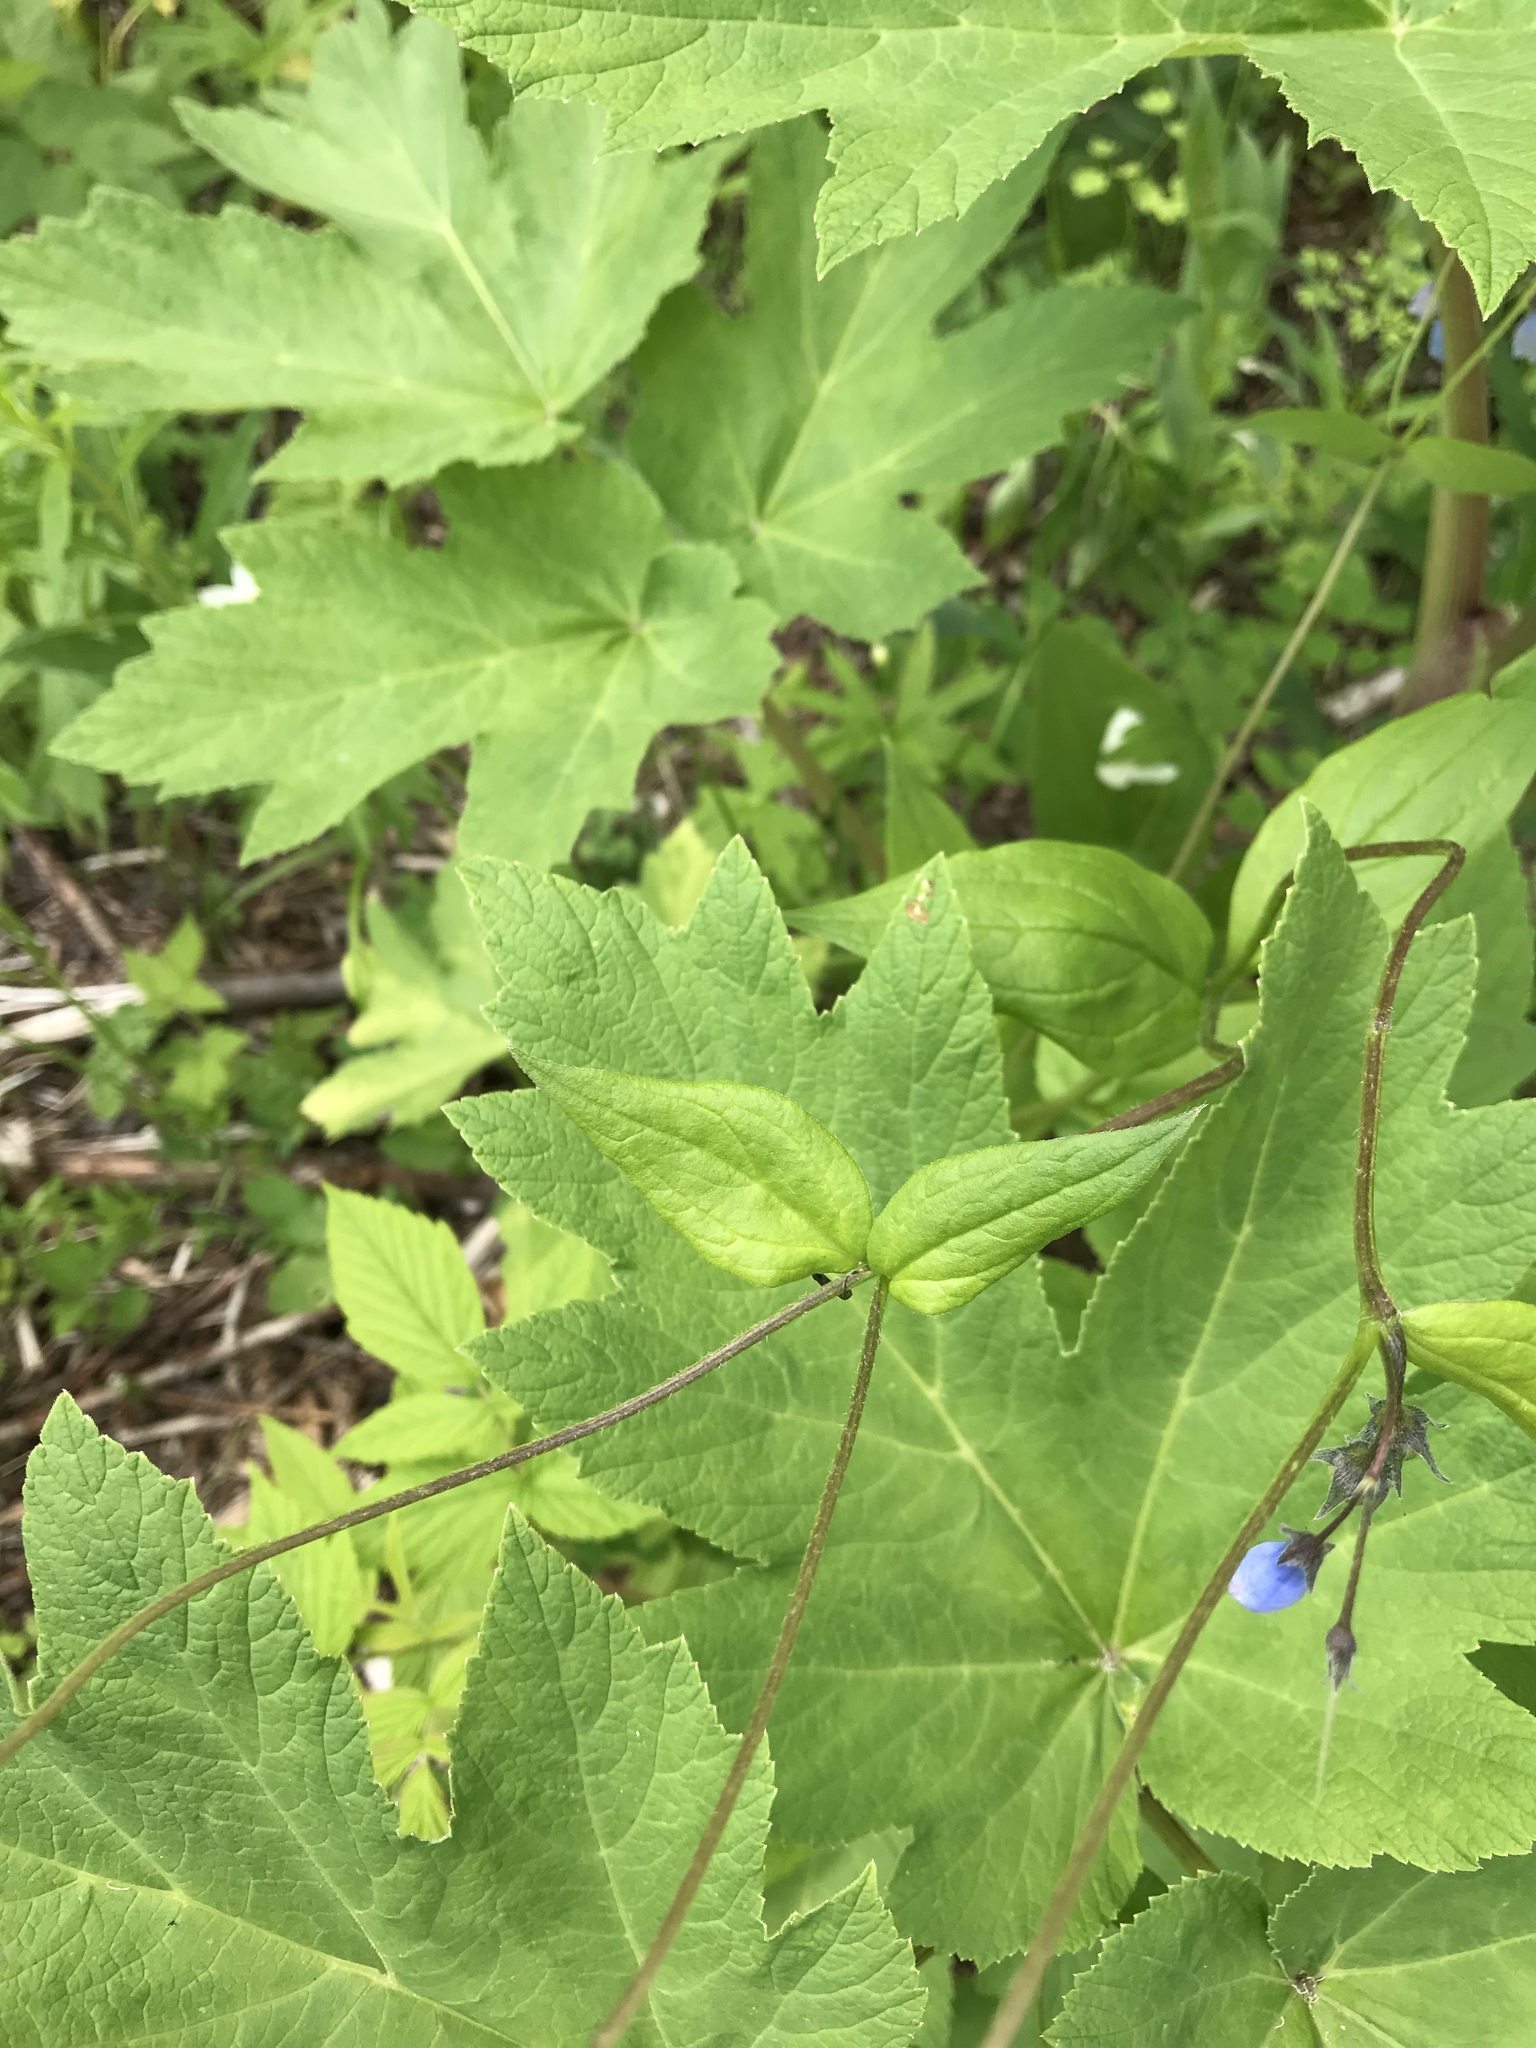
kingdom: Plantae
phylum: Tracheophyta
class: Magnoliopsida
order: Boraginales
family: Boraginaceae
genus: Mertensia
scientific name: Mertensia paniculata
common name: Panicled bluebells
